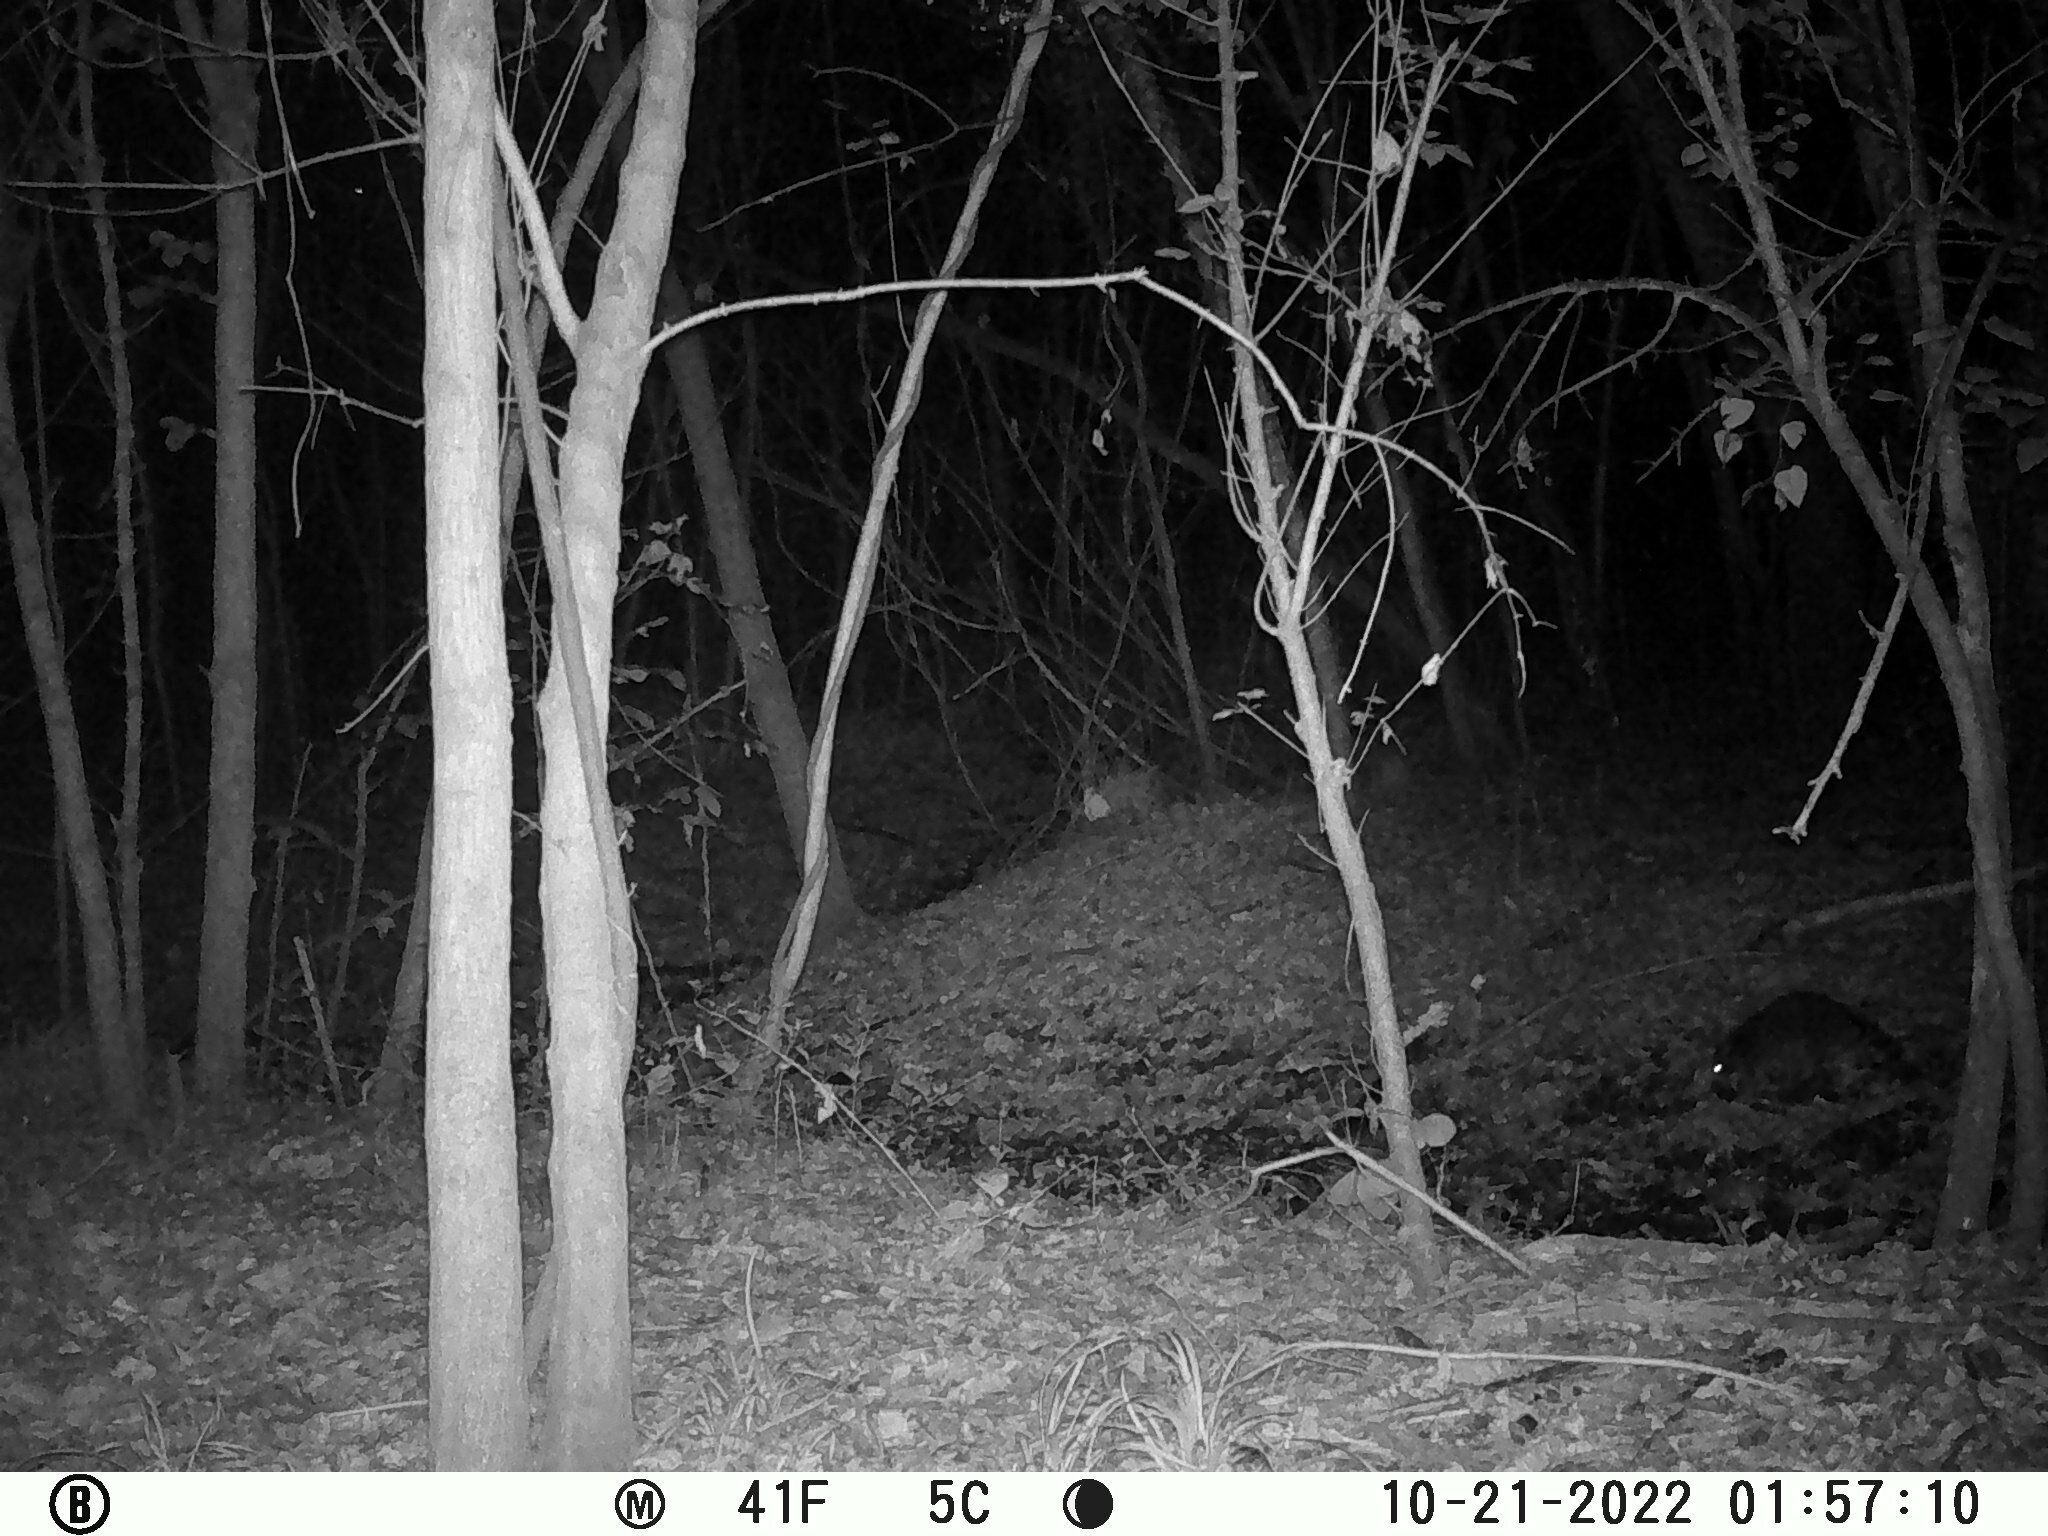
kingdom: Animalia
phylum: Chordata
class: Mammalia
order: Carnivora
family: Procyonidae
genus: Procyon
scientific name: Procyon lotor
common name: Raccoon
